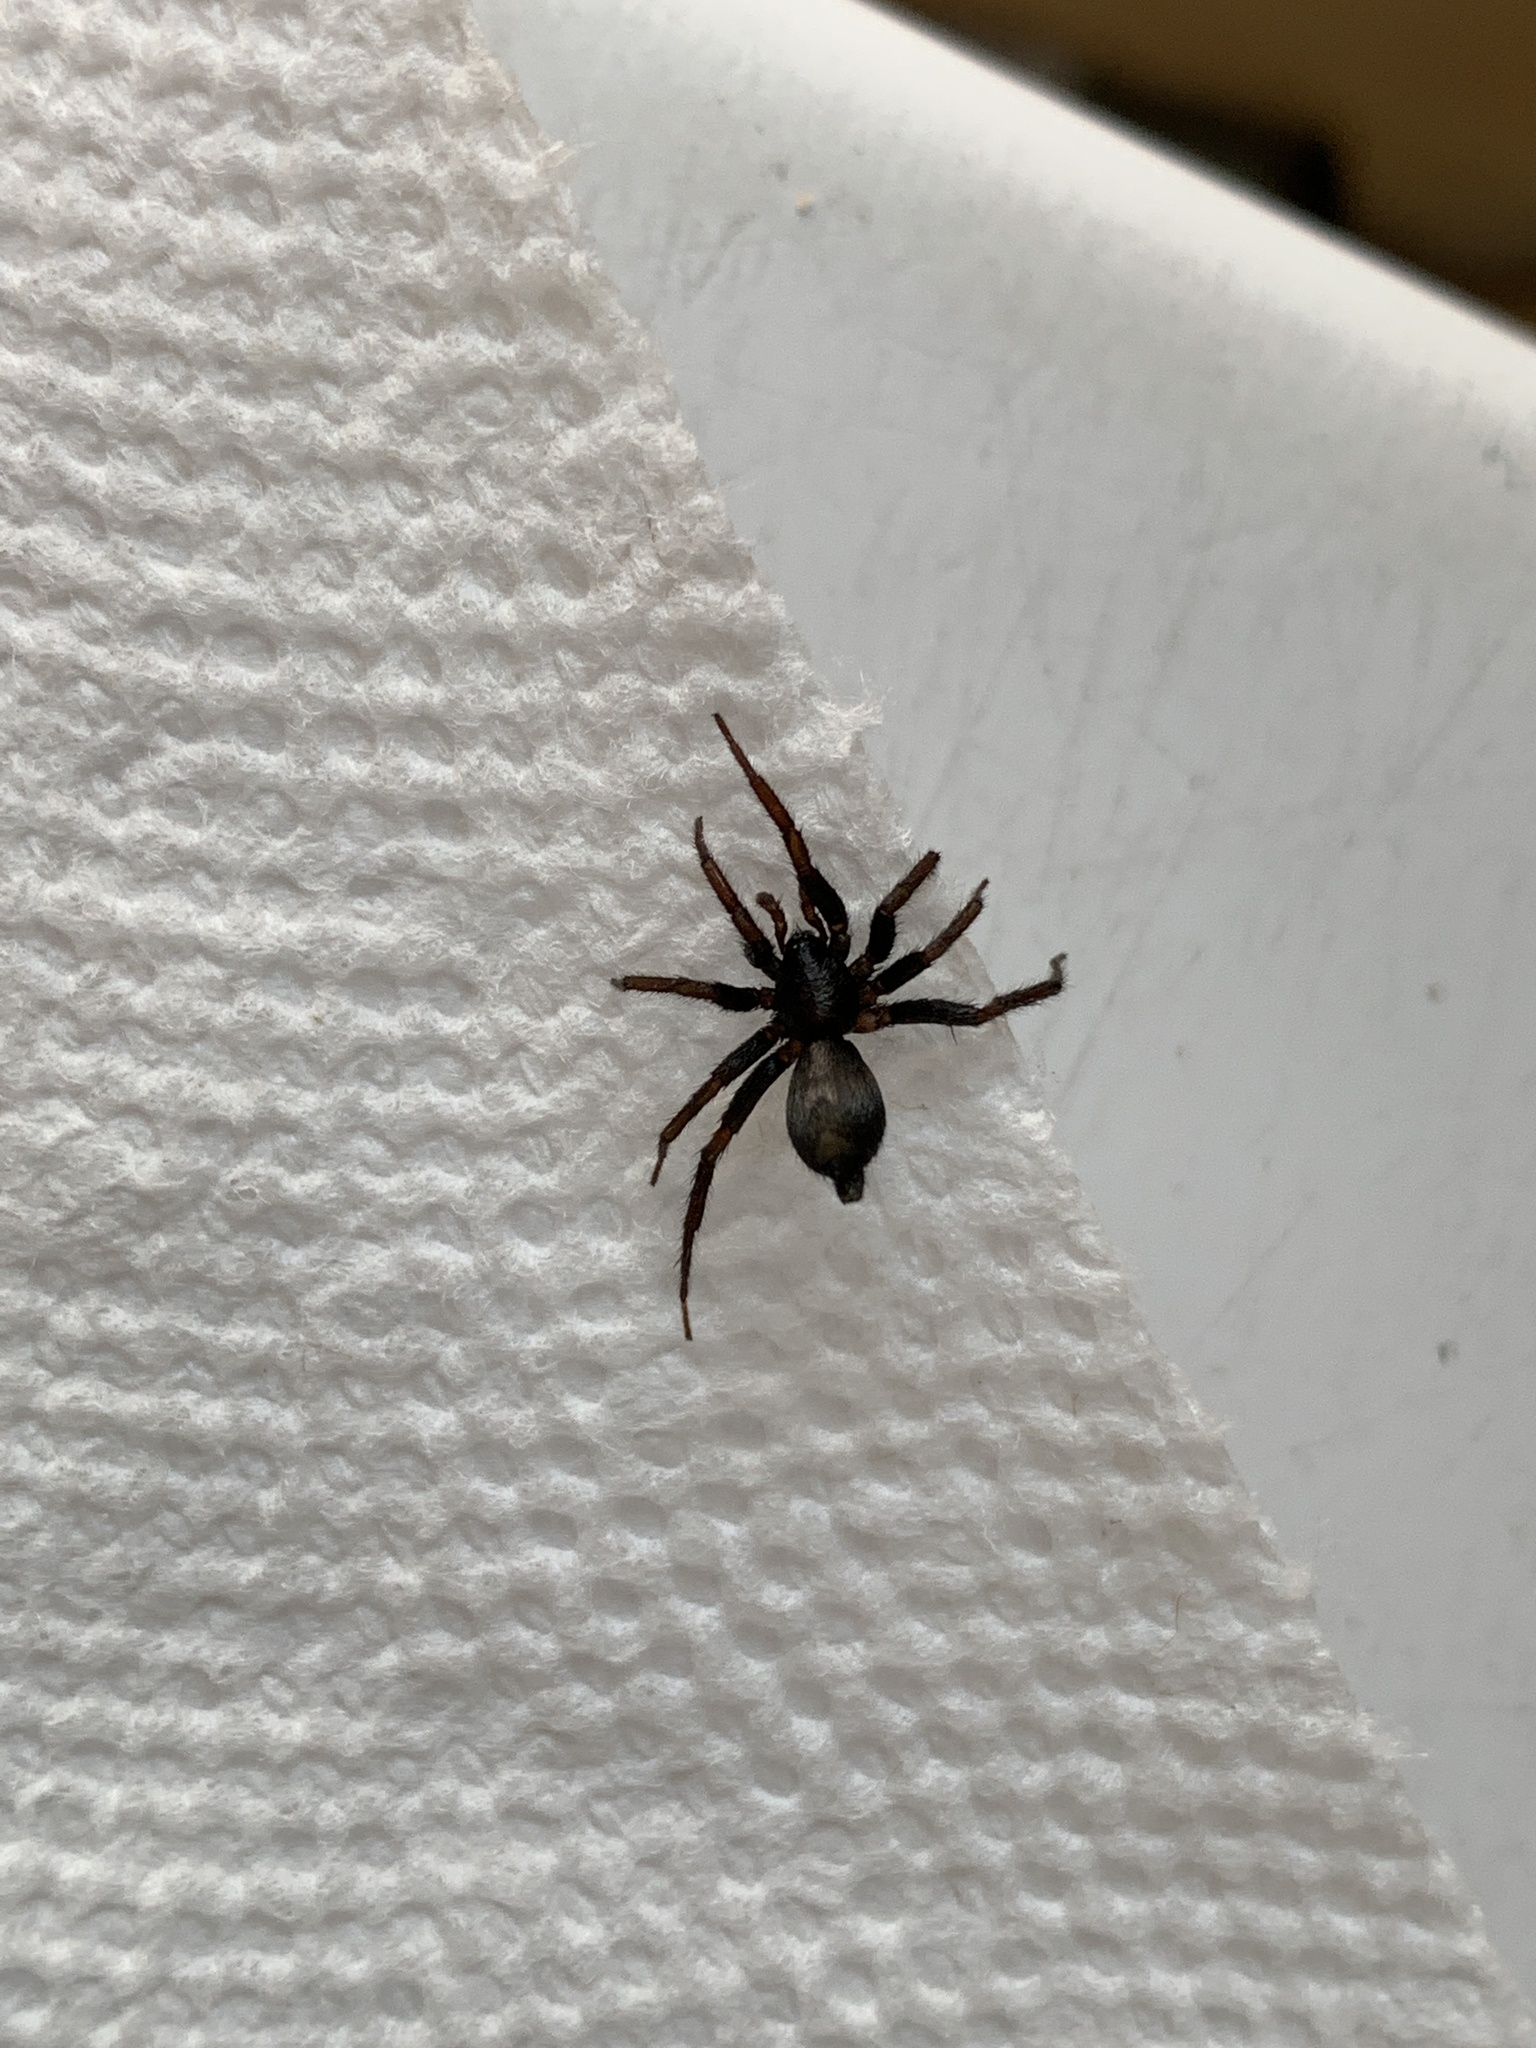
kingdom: Animalia
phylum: Arthropoda
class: Arachnida
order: Araneae
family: Gnaphosidae
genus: Herpyllus
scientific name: Herpyllus ecclesiasticus
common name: Eastern parson spider
